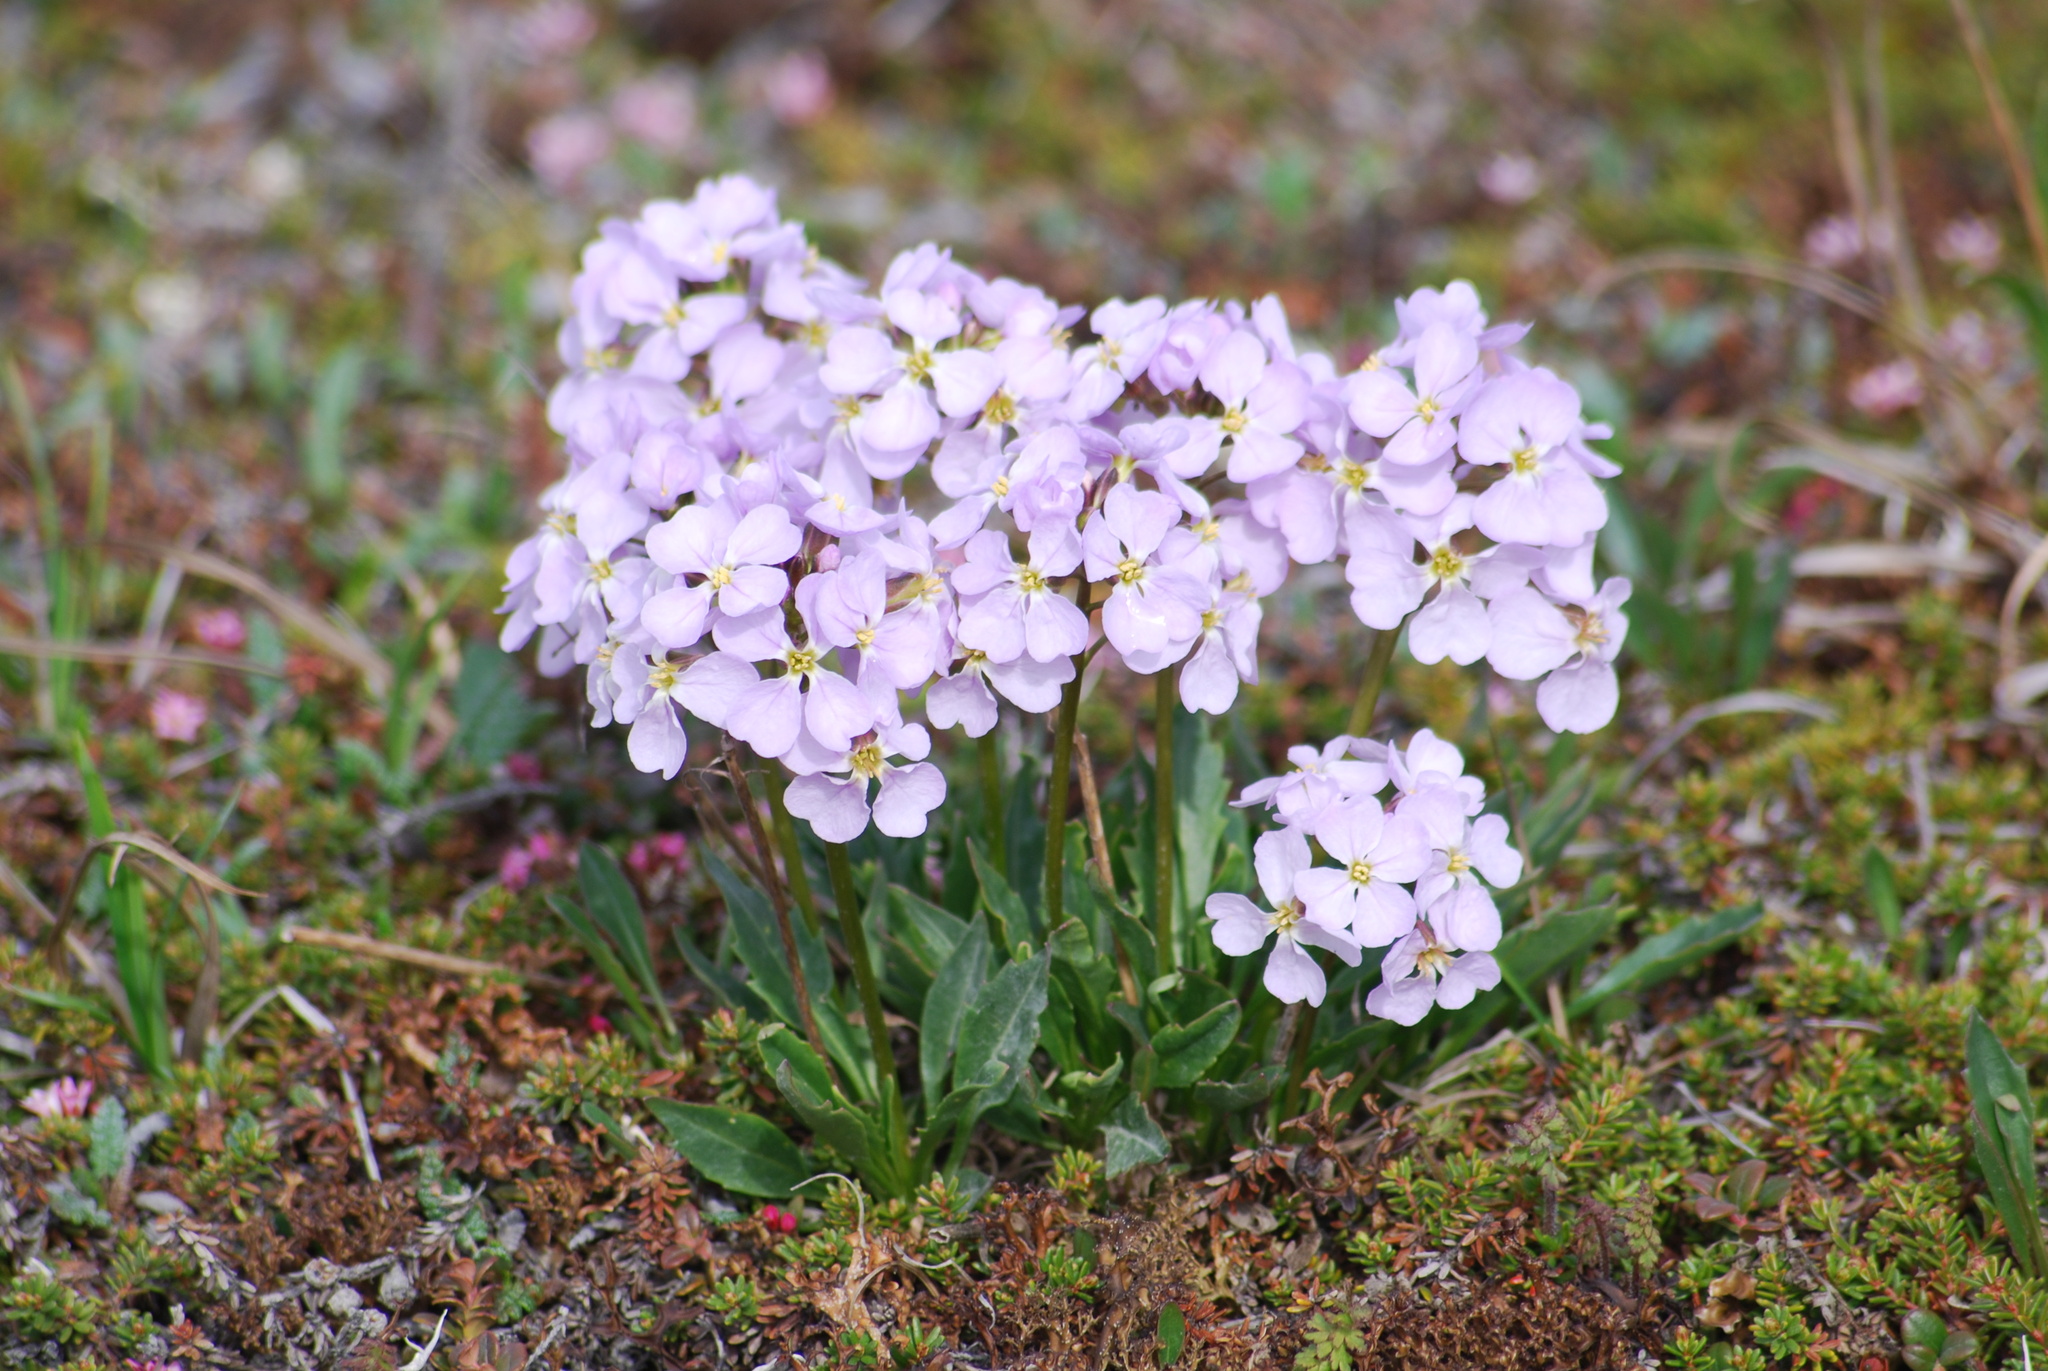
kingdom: Plantae
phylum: Tracheophyta
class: Magnoliopsida
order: Brassicales
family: Brassicaceae
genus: Parrya
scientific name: Parrya nudicaulis
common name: Naked-stemmed false wallflower
